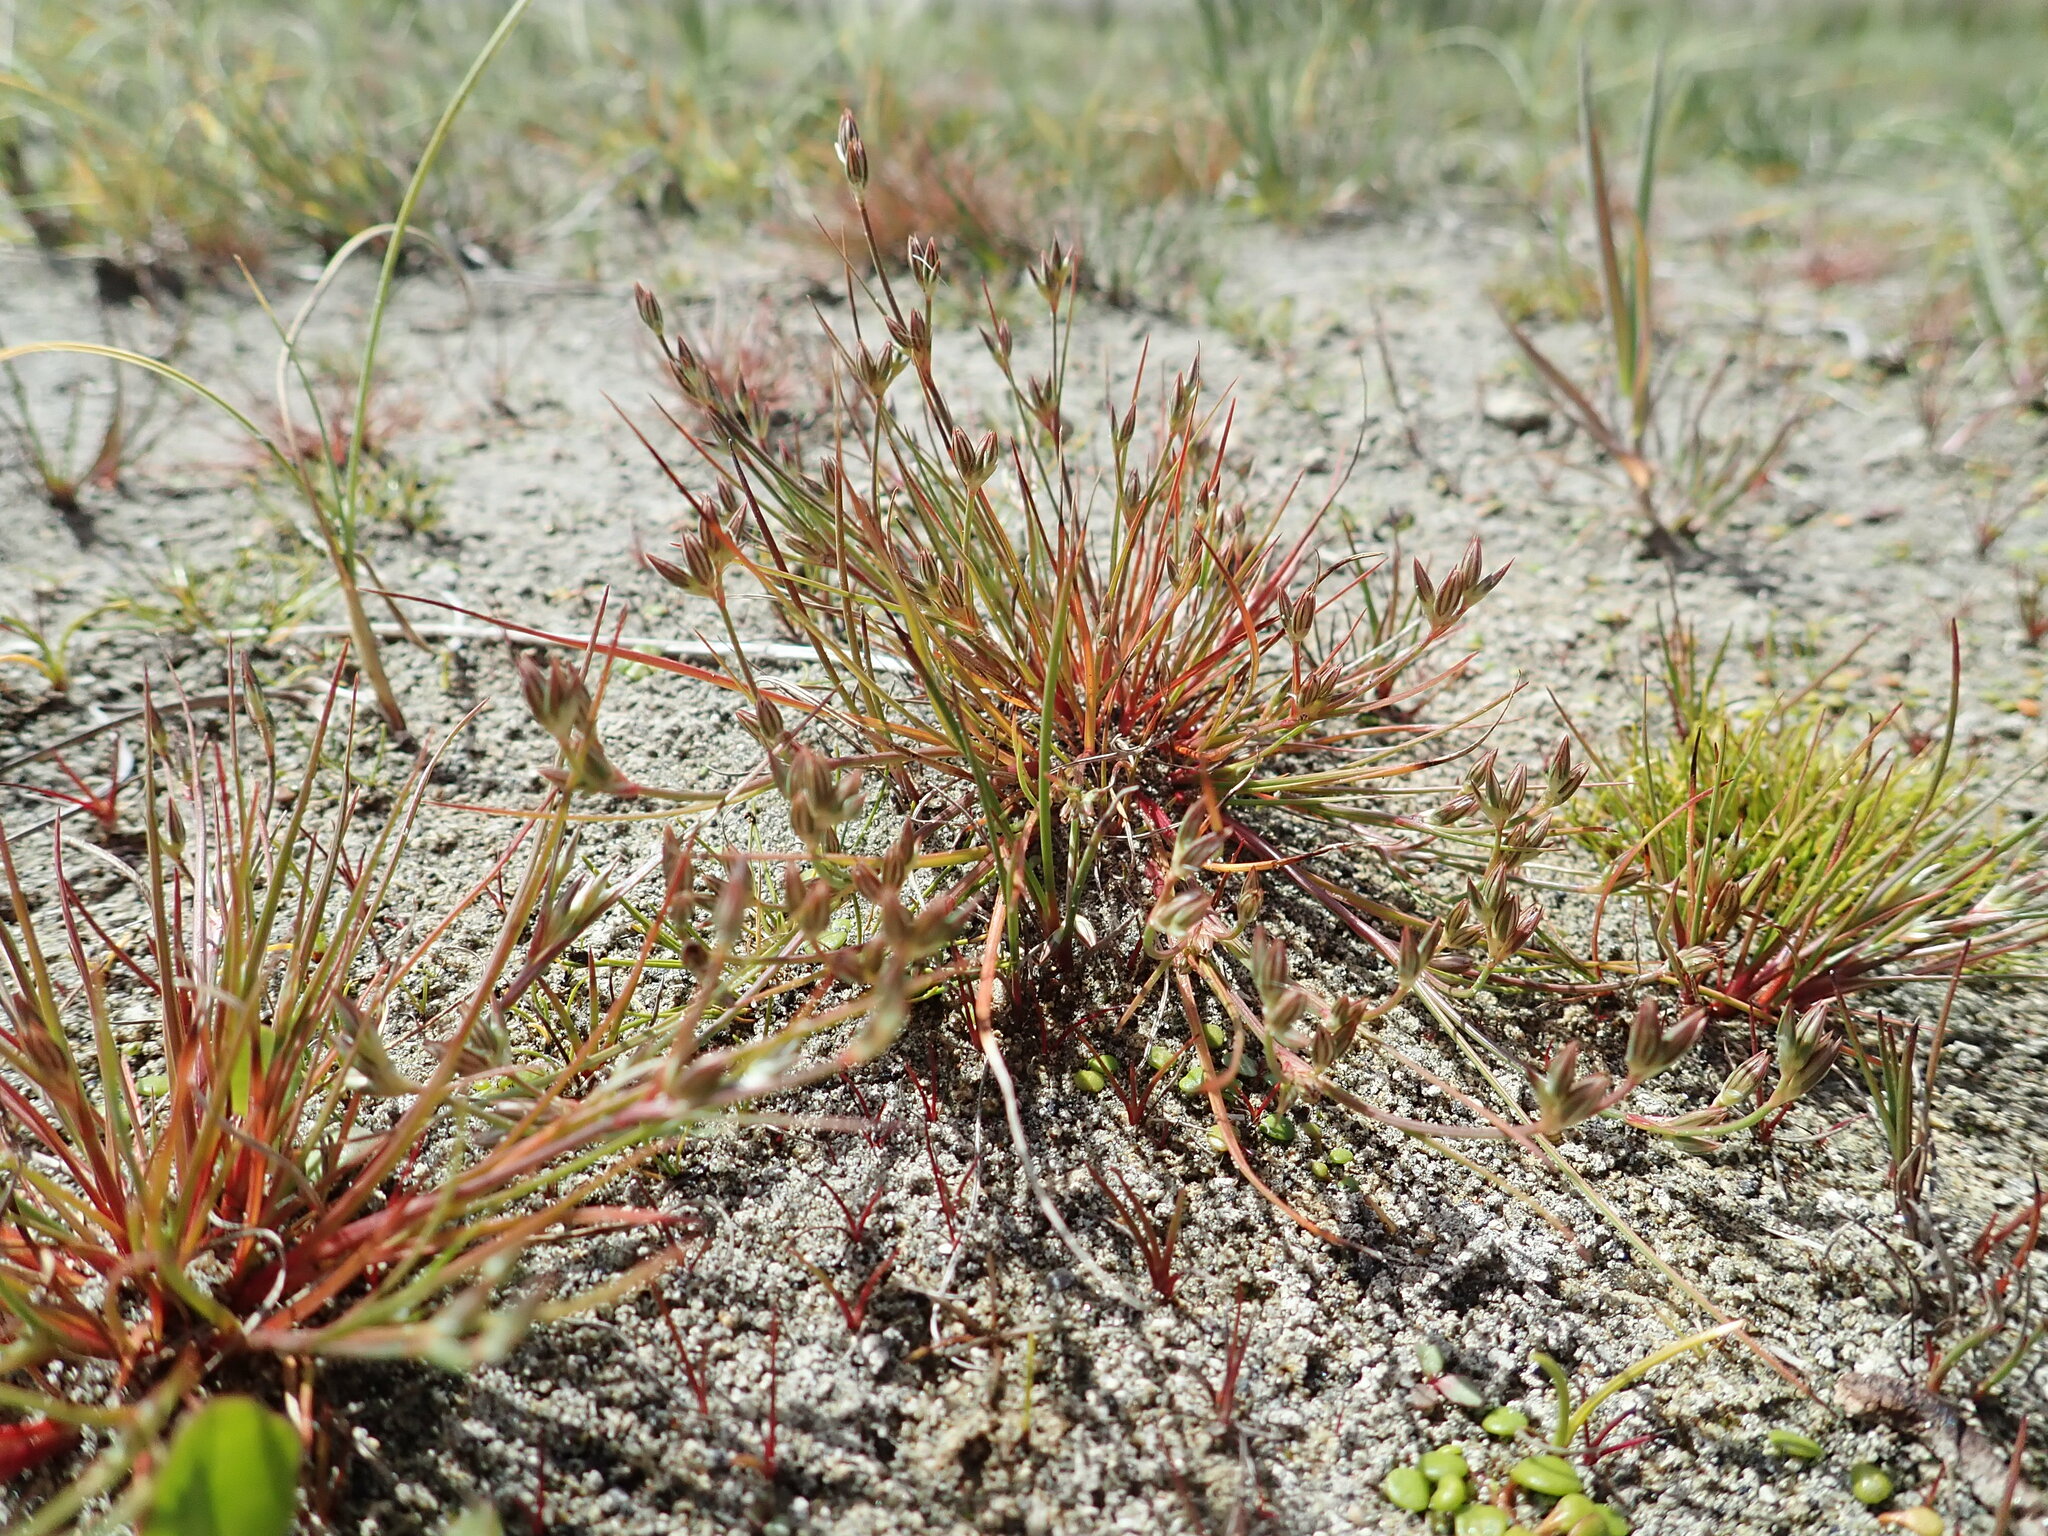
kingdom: Plantae
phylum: Tracheophyta
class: Liliopsida
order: Poales
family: Juncaceae
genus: Juncus
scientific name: Juncus bufonius
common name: Toad rush
